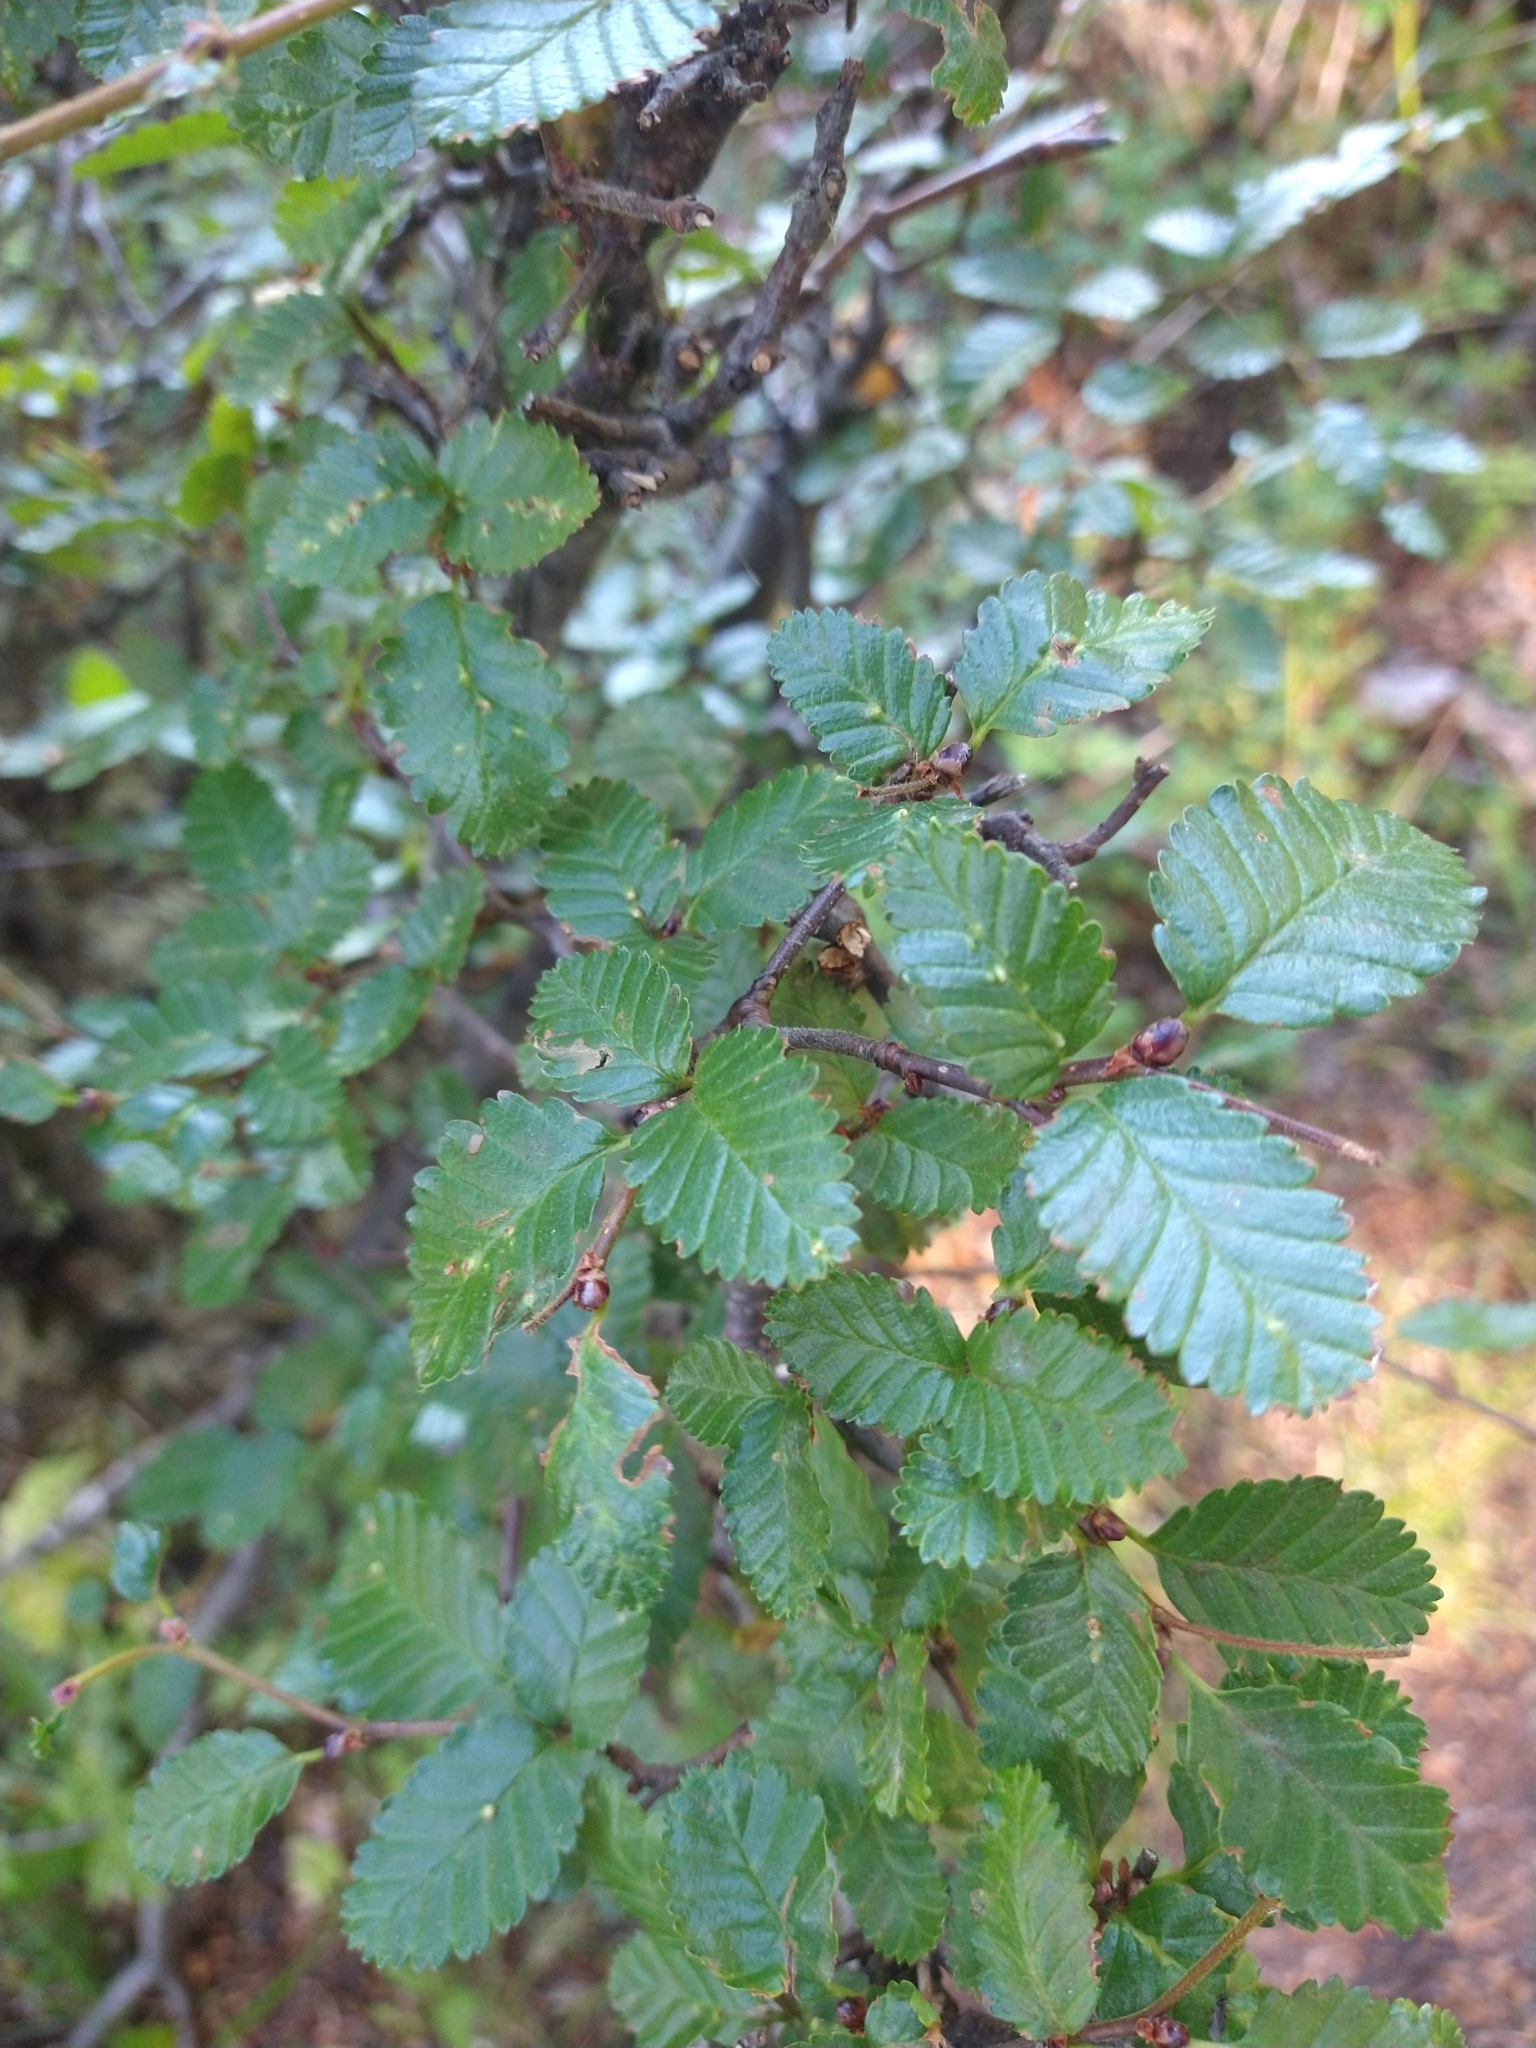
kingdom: Plantae
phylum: Tracheophyta
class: Magnoliopsida
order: Fagales
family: Nothofagaceae
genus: Nothofagus
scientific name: Nothofagus pumilio
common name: Lenga beech
